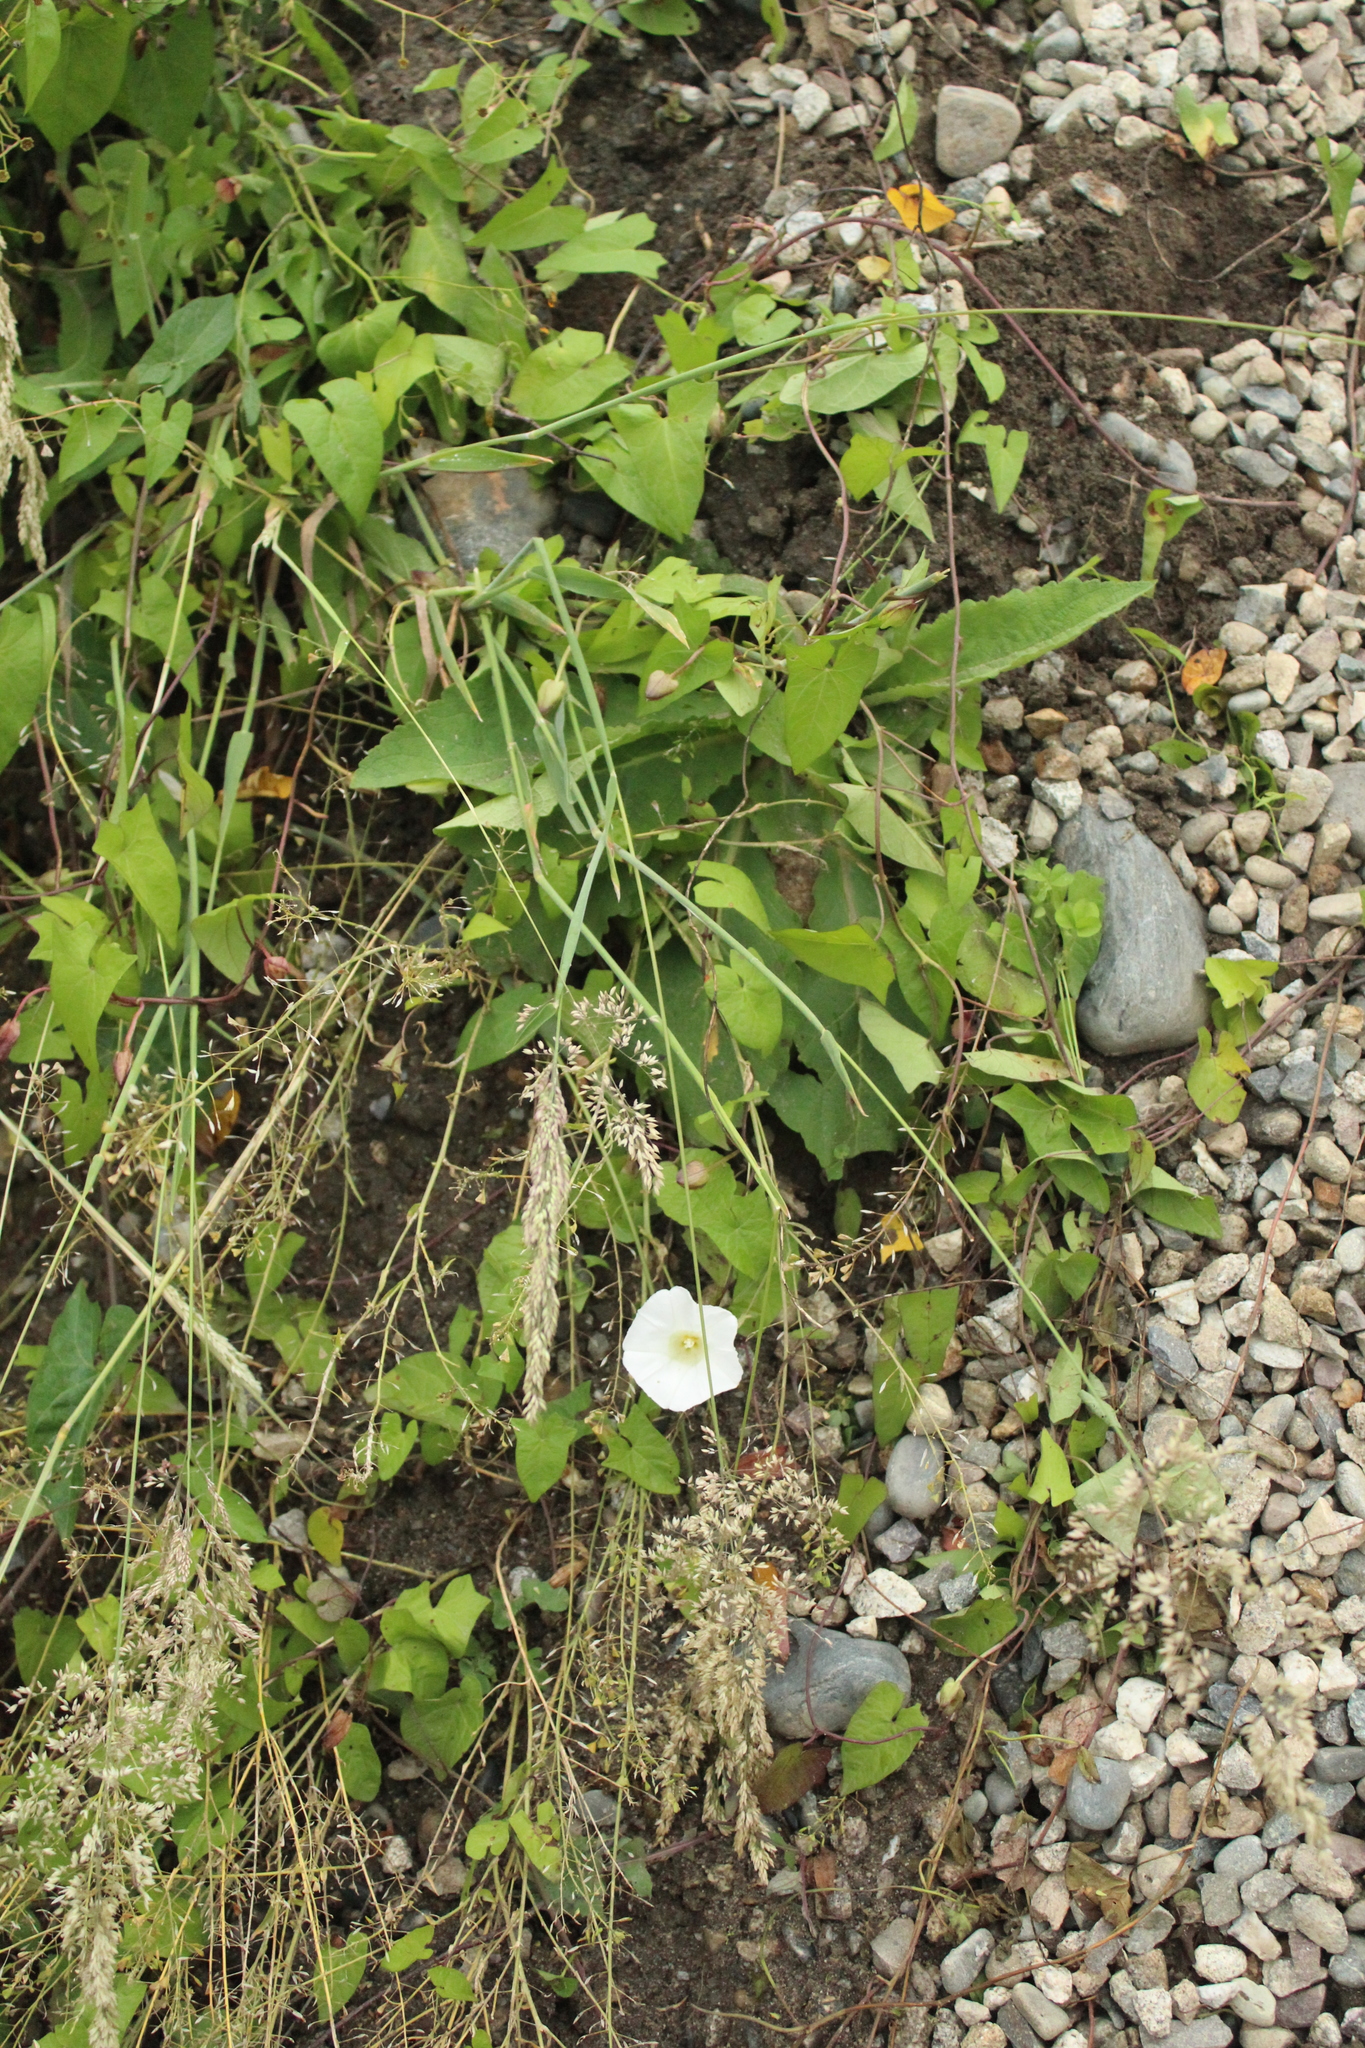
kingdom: Plantae
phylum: Tracheophyta
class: Magnoliopsida
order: Solanales
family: Convolvulaceae
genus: Calystegia
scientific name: Calystegia sepium
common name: Hedge bindweed
